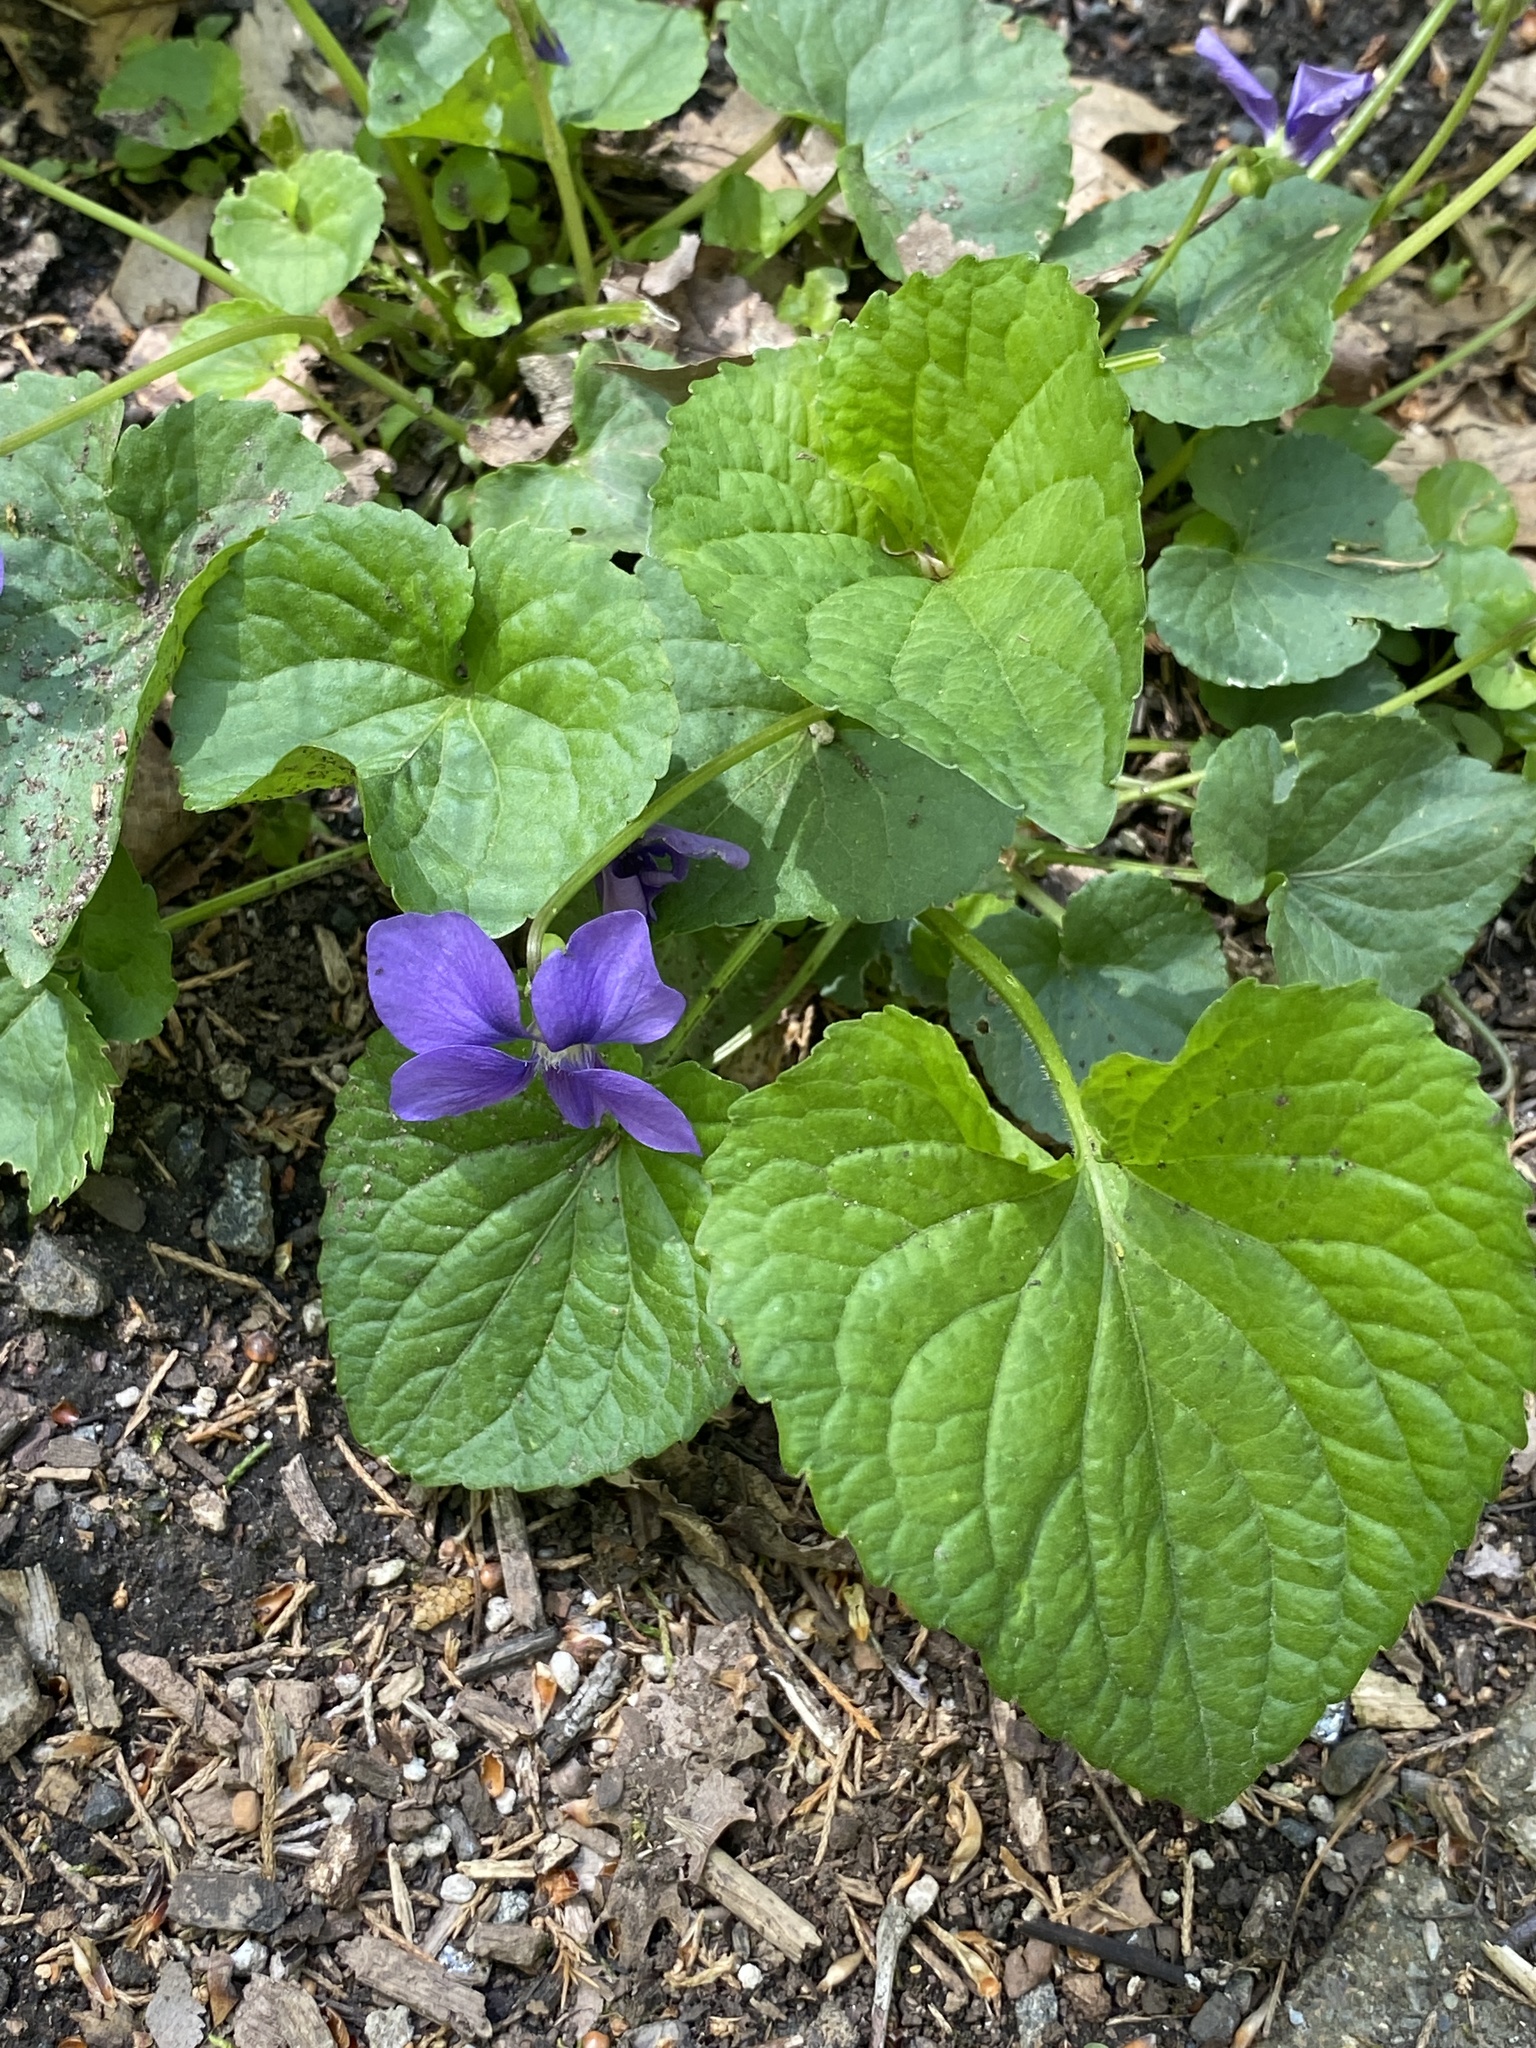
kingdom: Plantae
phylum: Tracheophyta
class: Magnoliopsida
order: Malpighiales
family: Violaceae
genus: Viola
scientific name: Viola sororia
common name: Dooryard violet
